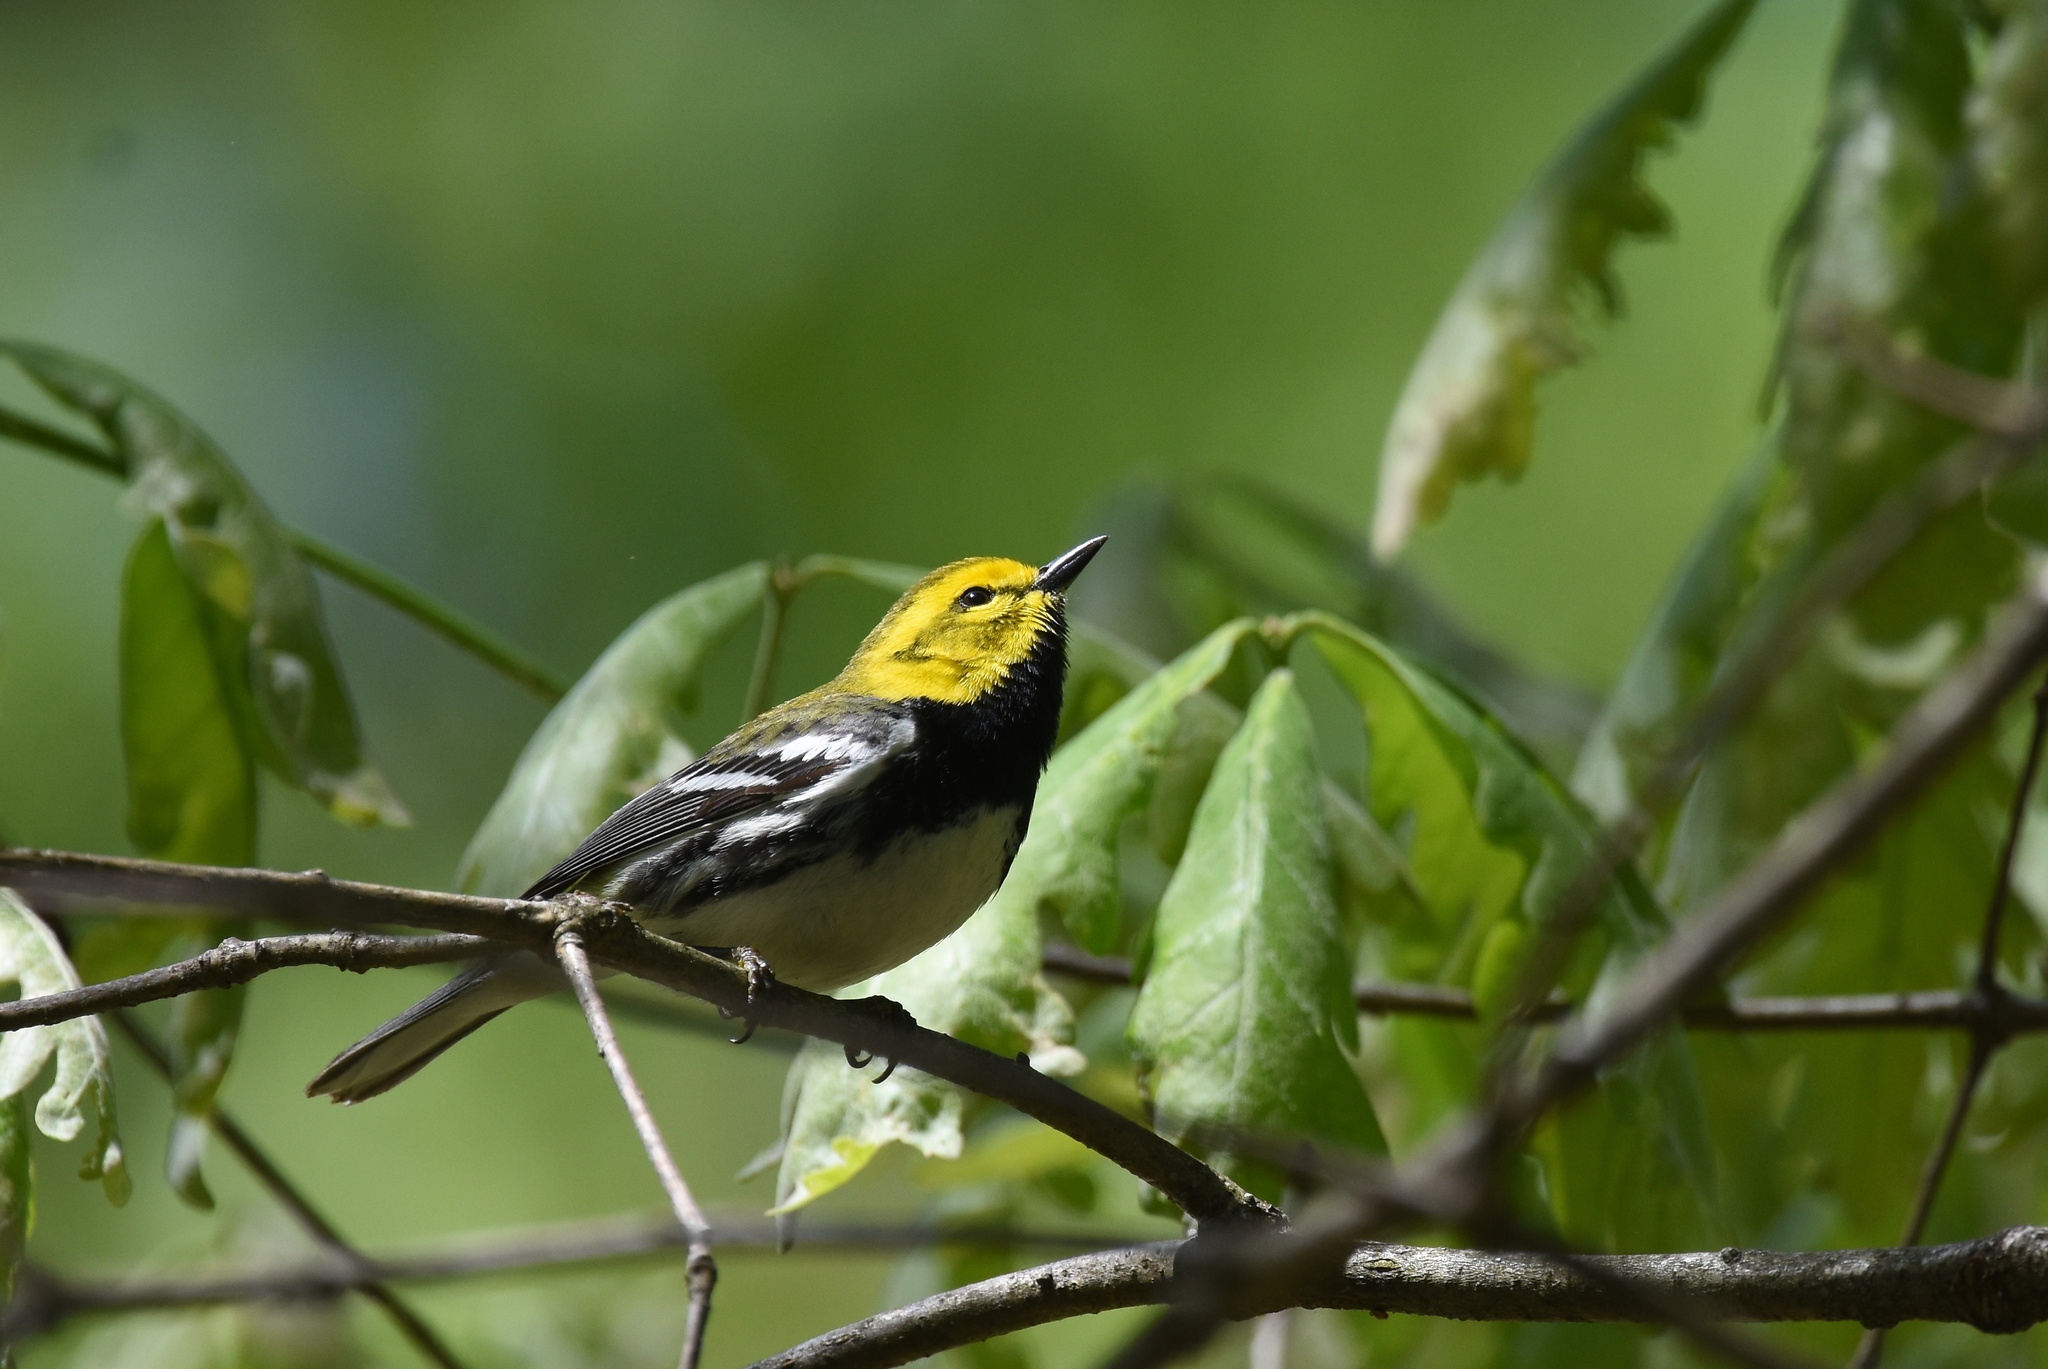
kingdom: Animalia
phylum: Chordata
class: Aves
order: Passeriformes
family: Parulidae
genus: Setophaga
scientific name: Setophaga virens
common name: Black-throated green warbler
